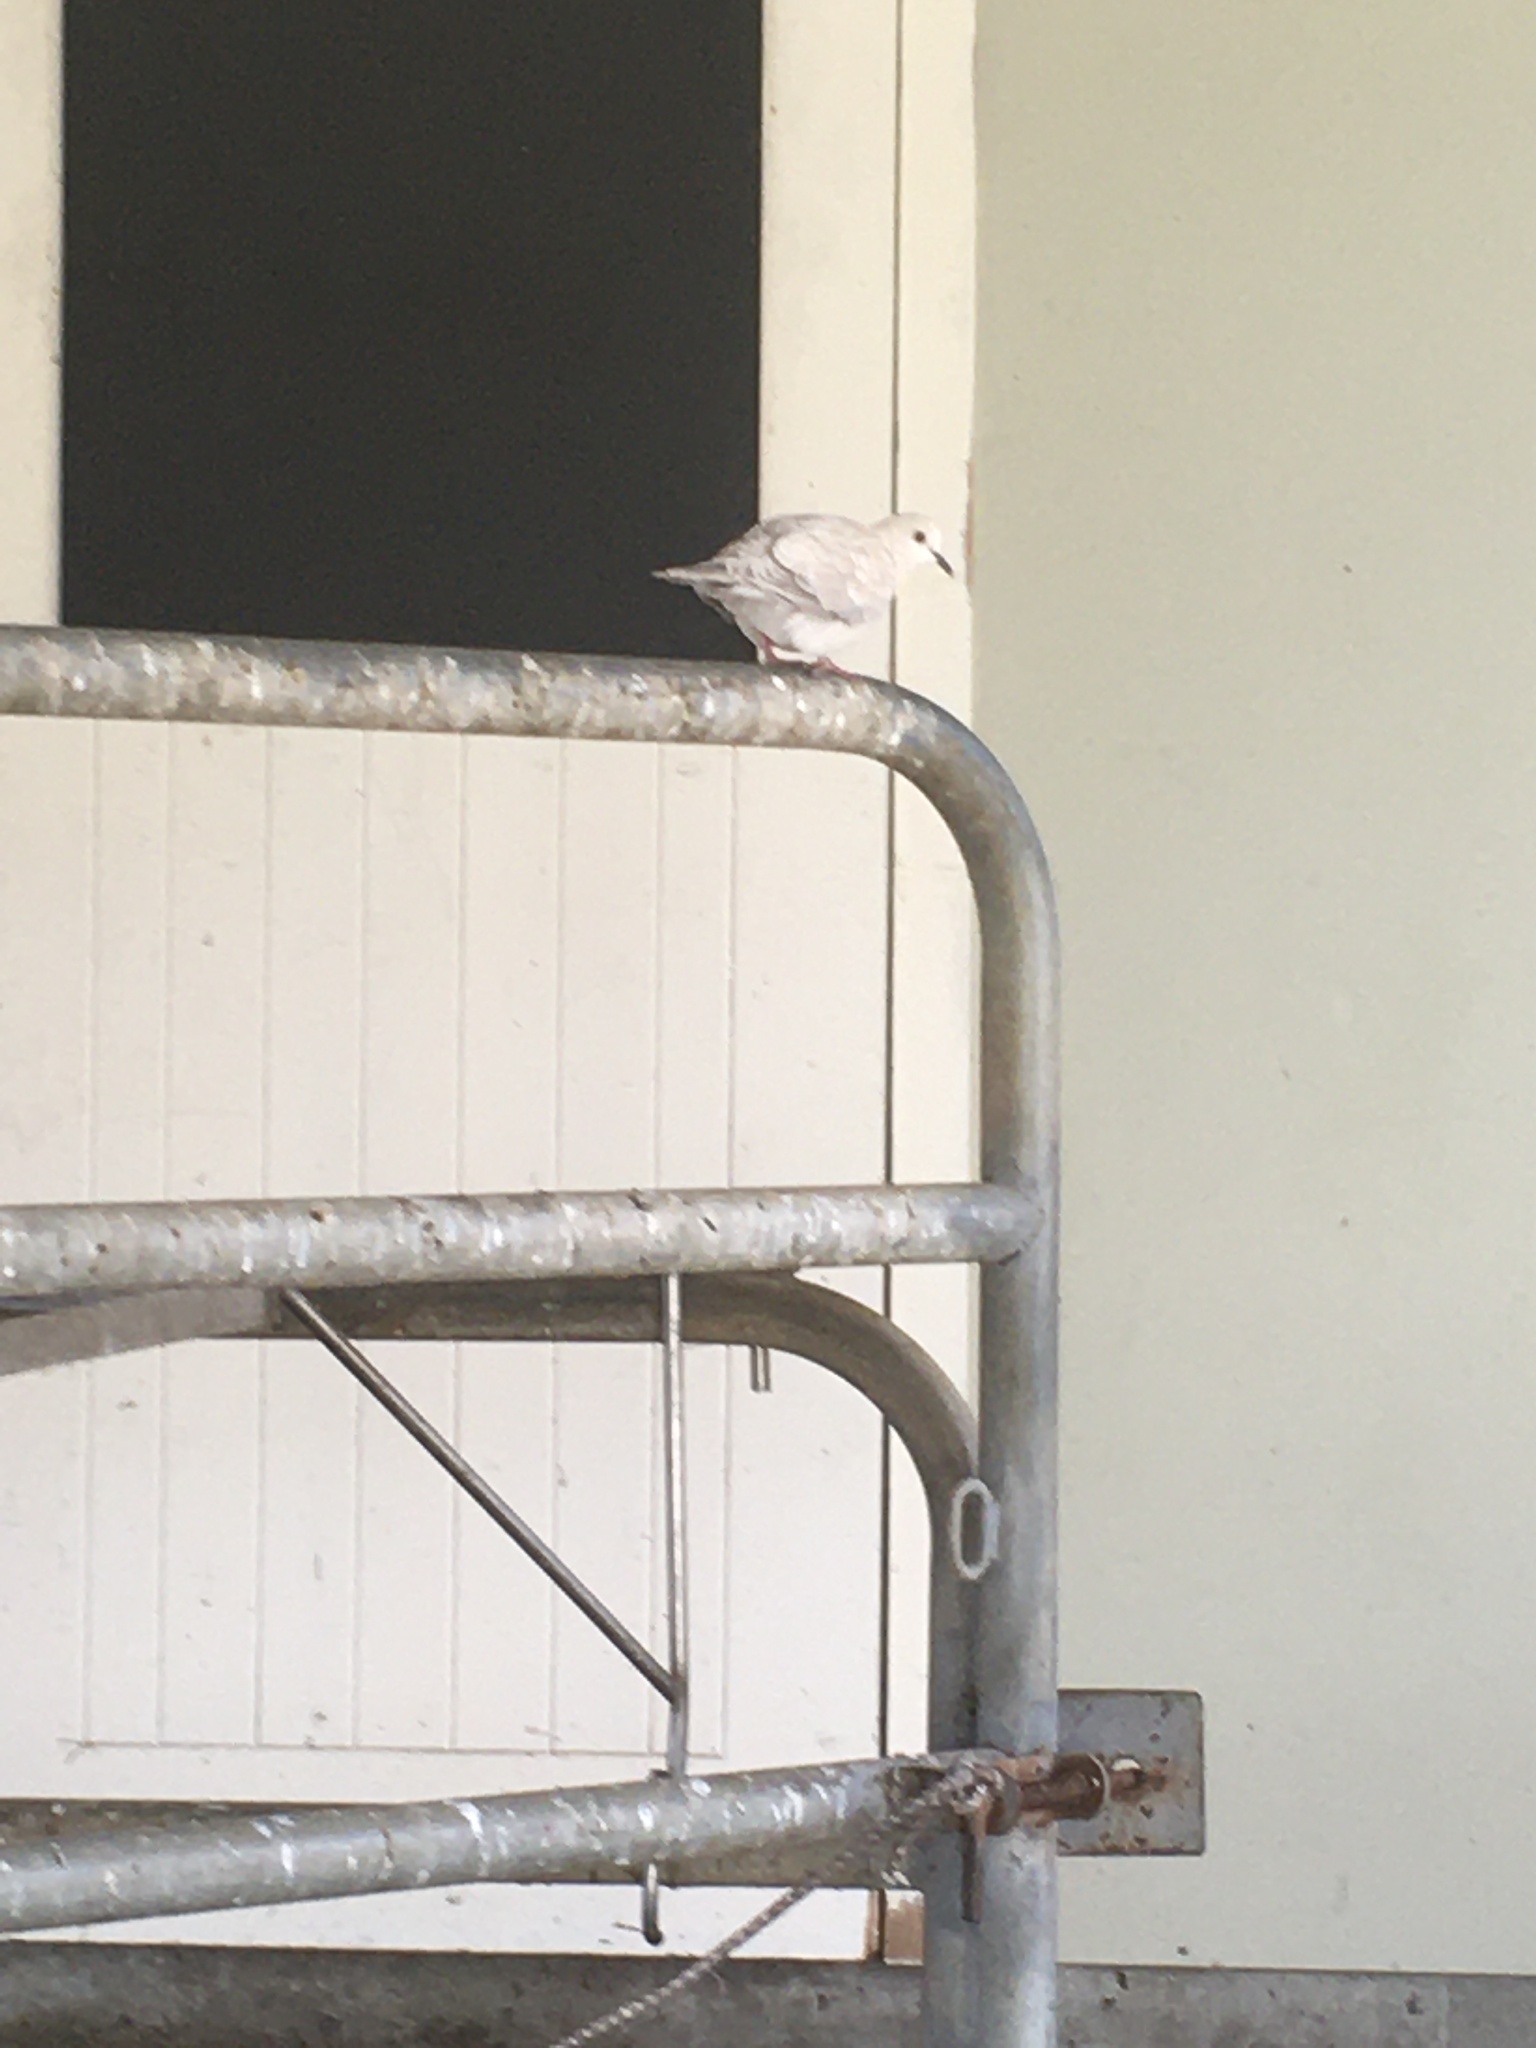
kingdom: Animalia
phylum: Chordata
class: Aves
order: Columbiformes
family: Columbidae
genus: Streptopelia
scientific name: Streptopelia roseogrisea
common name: African collared dove
